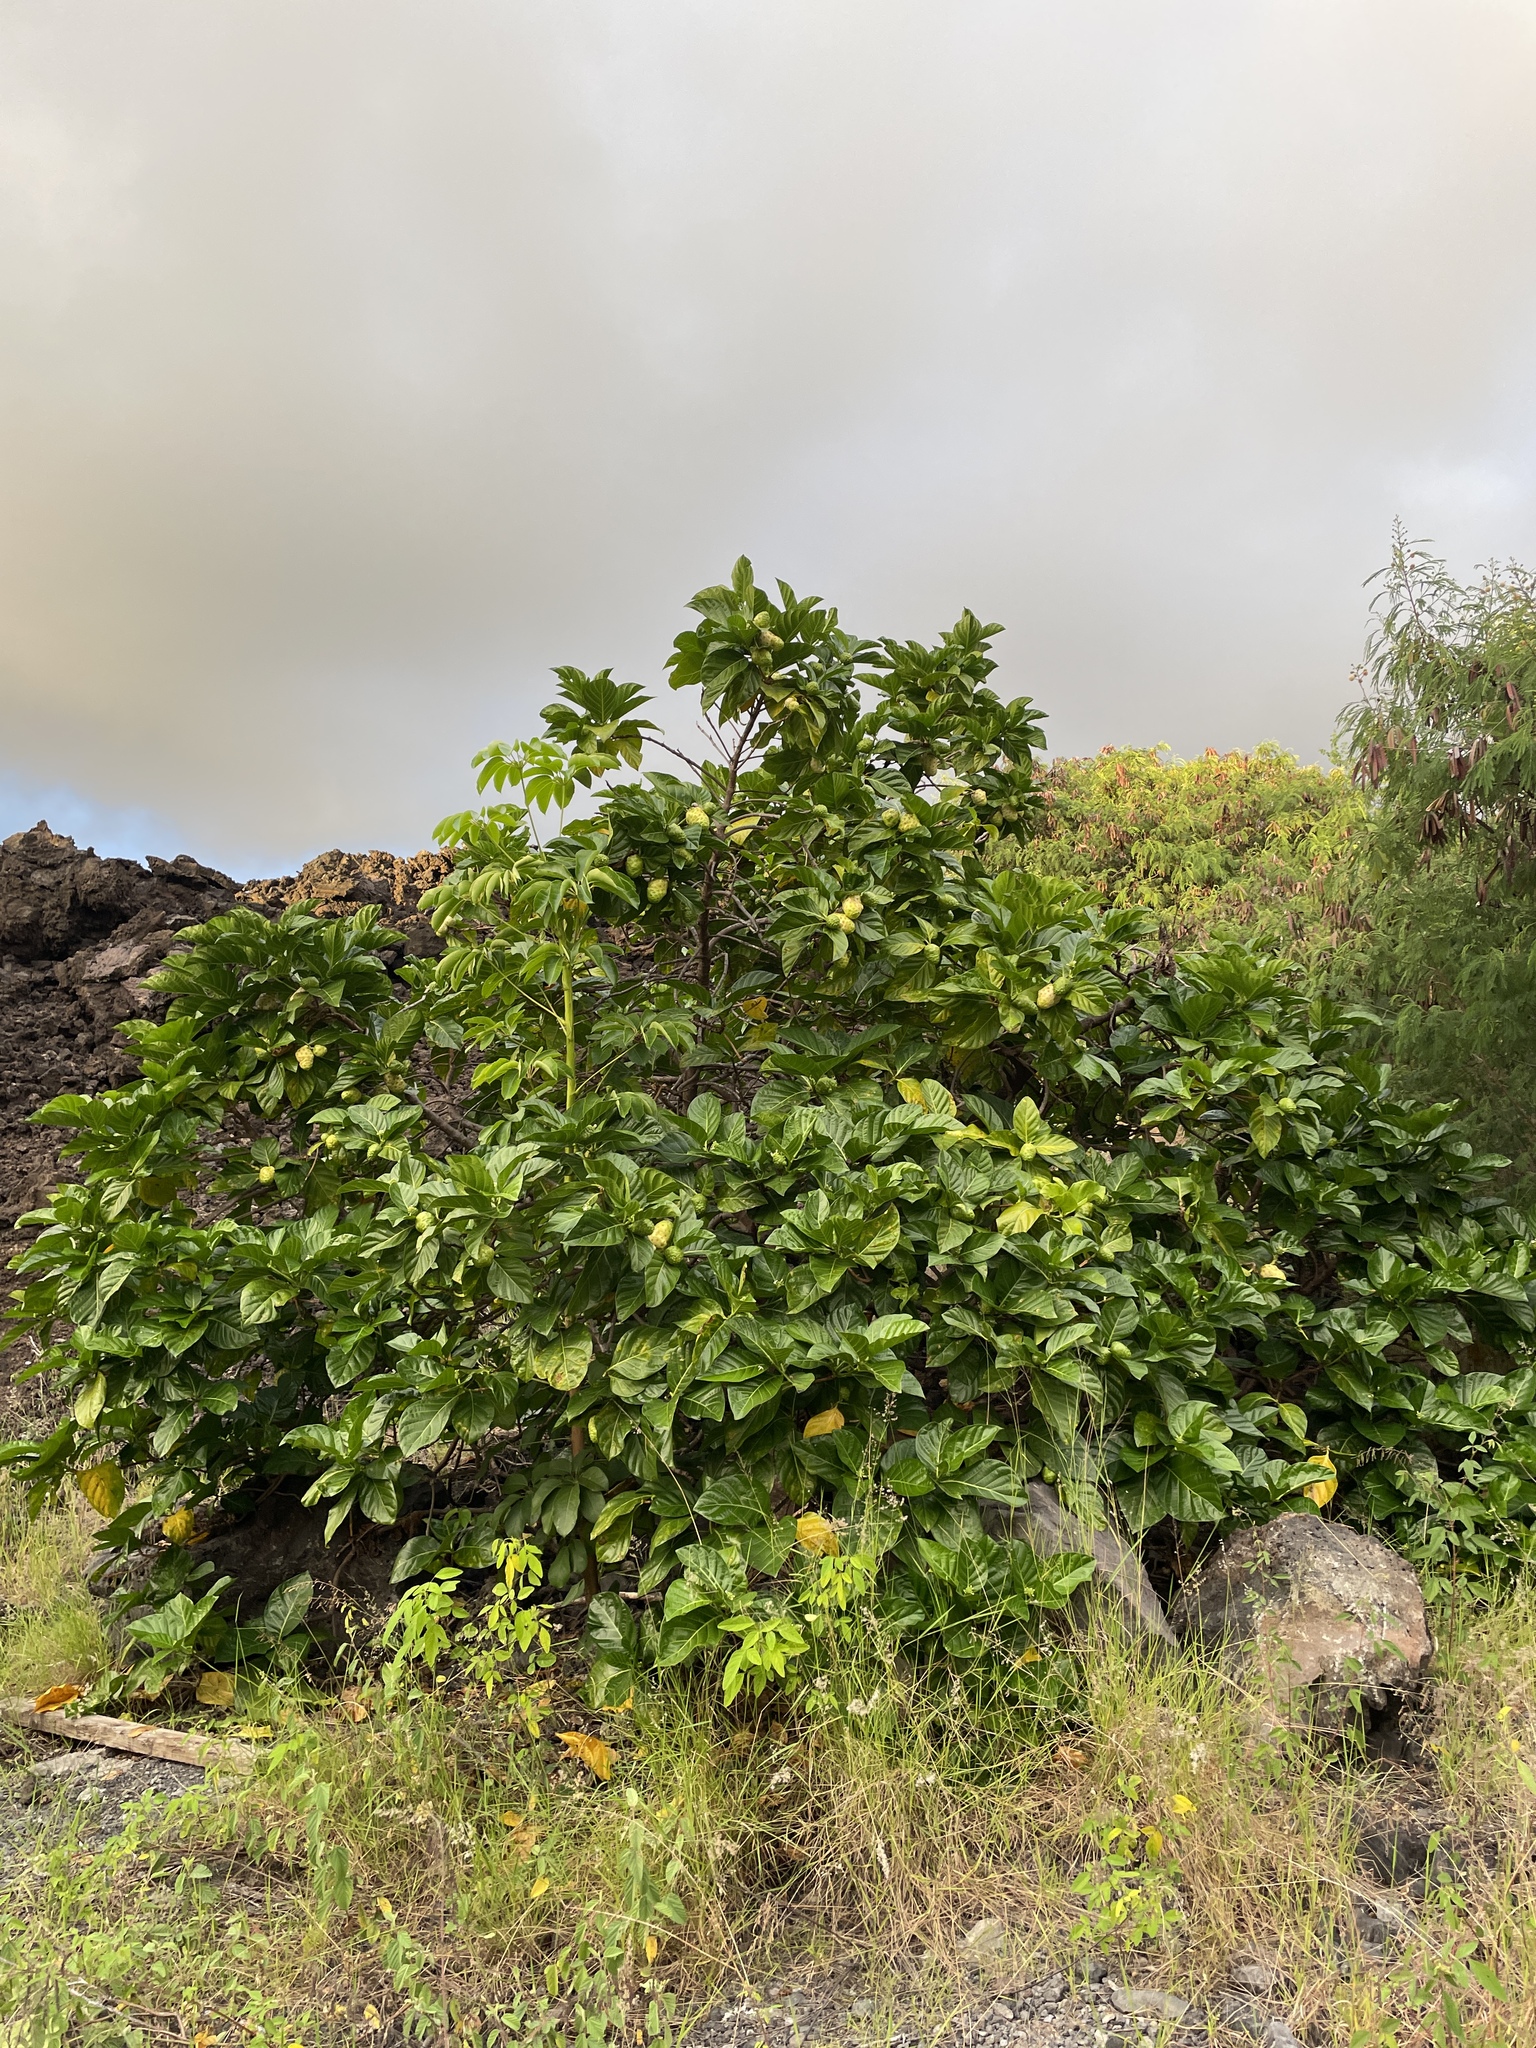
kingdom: Plantae
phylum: Tracheophyta
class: Magnoliopsida
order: Gentianales
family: Rubiaceae
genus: Morinda
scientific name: Morinda citrifolia
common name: Indian-mulberry
